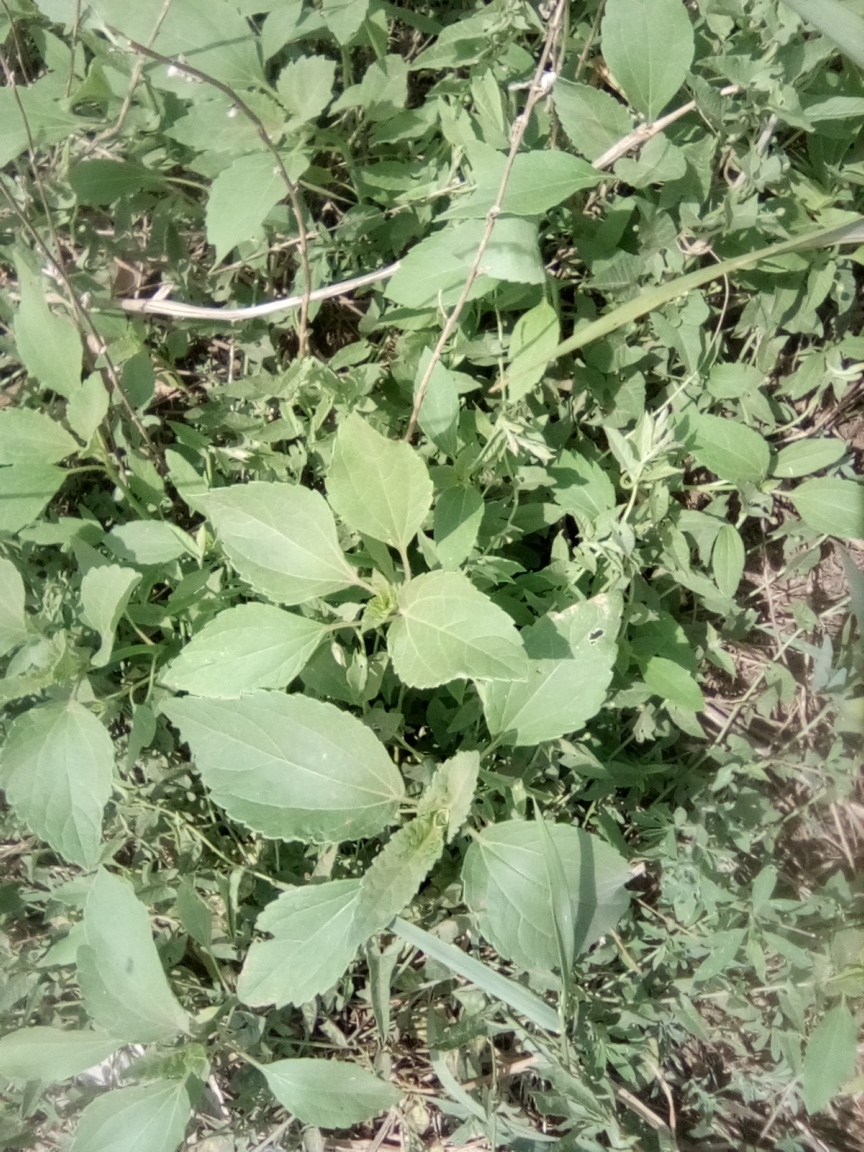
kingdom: Plantae
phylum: Tracheophyta
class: Magnoliopsida
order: Asterales
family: Asteraceae
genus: Cyclachaena
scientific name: Cyclachaena xanthiifolia
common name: Giant sumpweed
